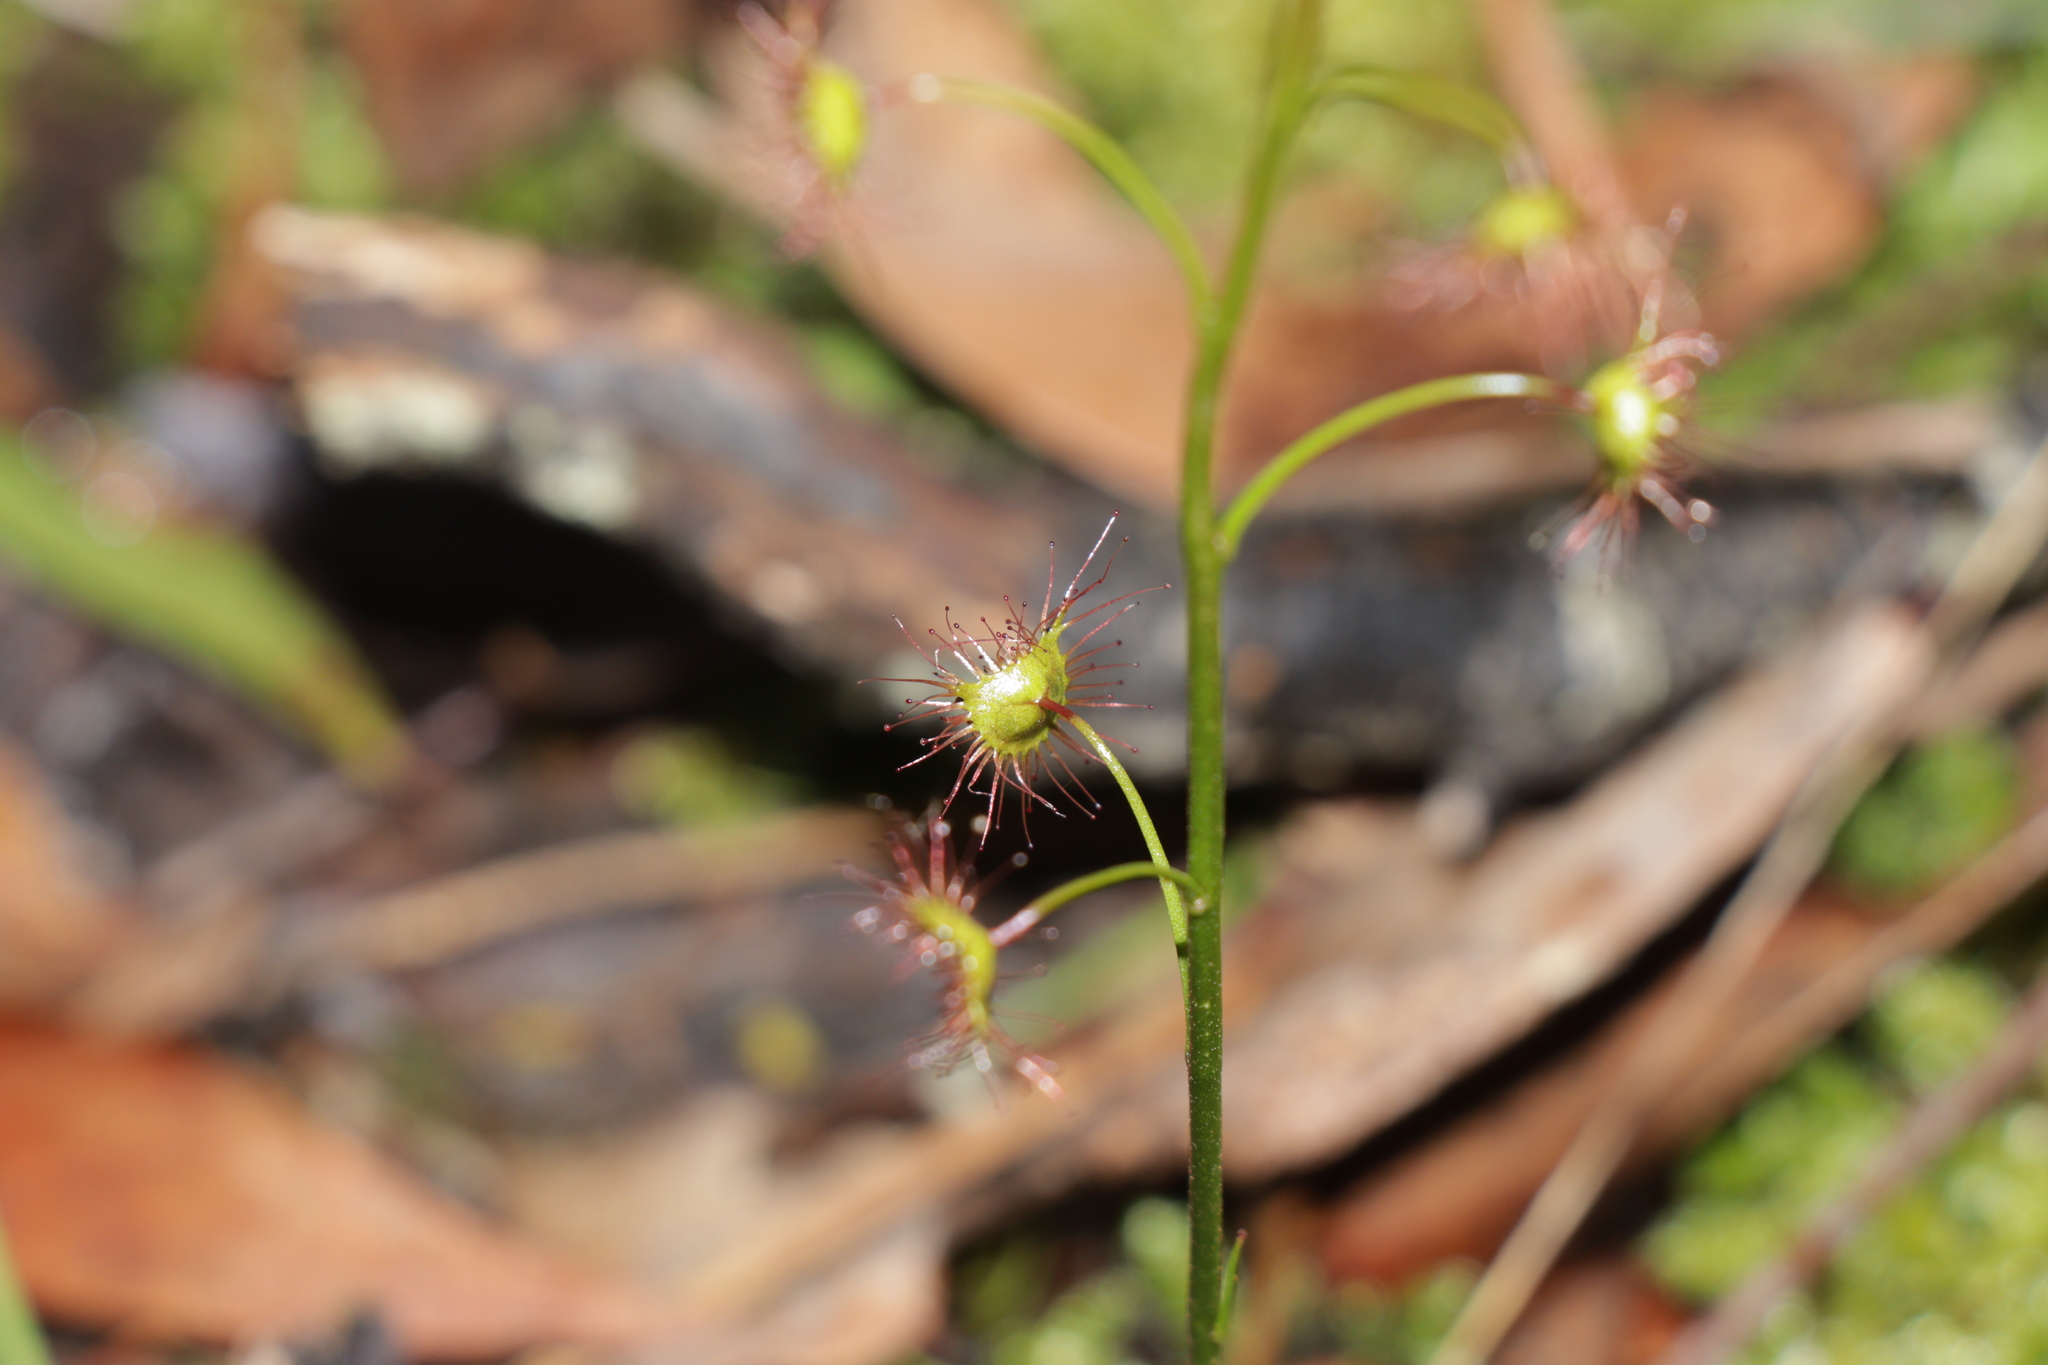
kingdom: Plantae
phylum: Tracheophyta
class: Magnoliopsida
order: Caryophyllales
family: Droseraceae
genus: Drosera
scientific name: Drosera peltata
